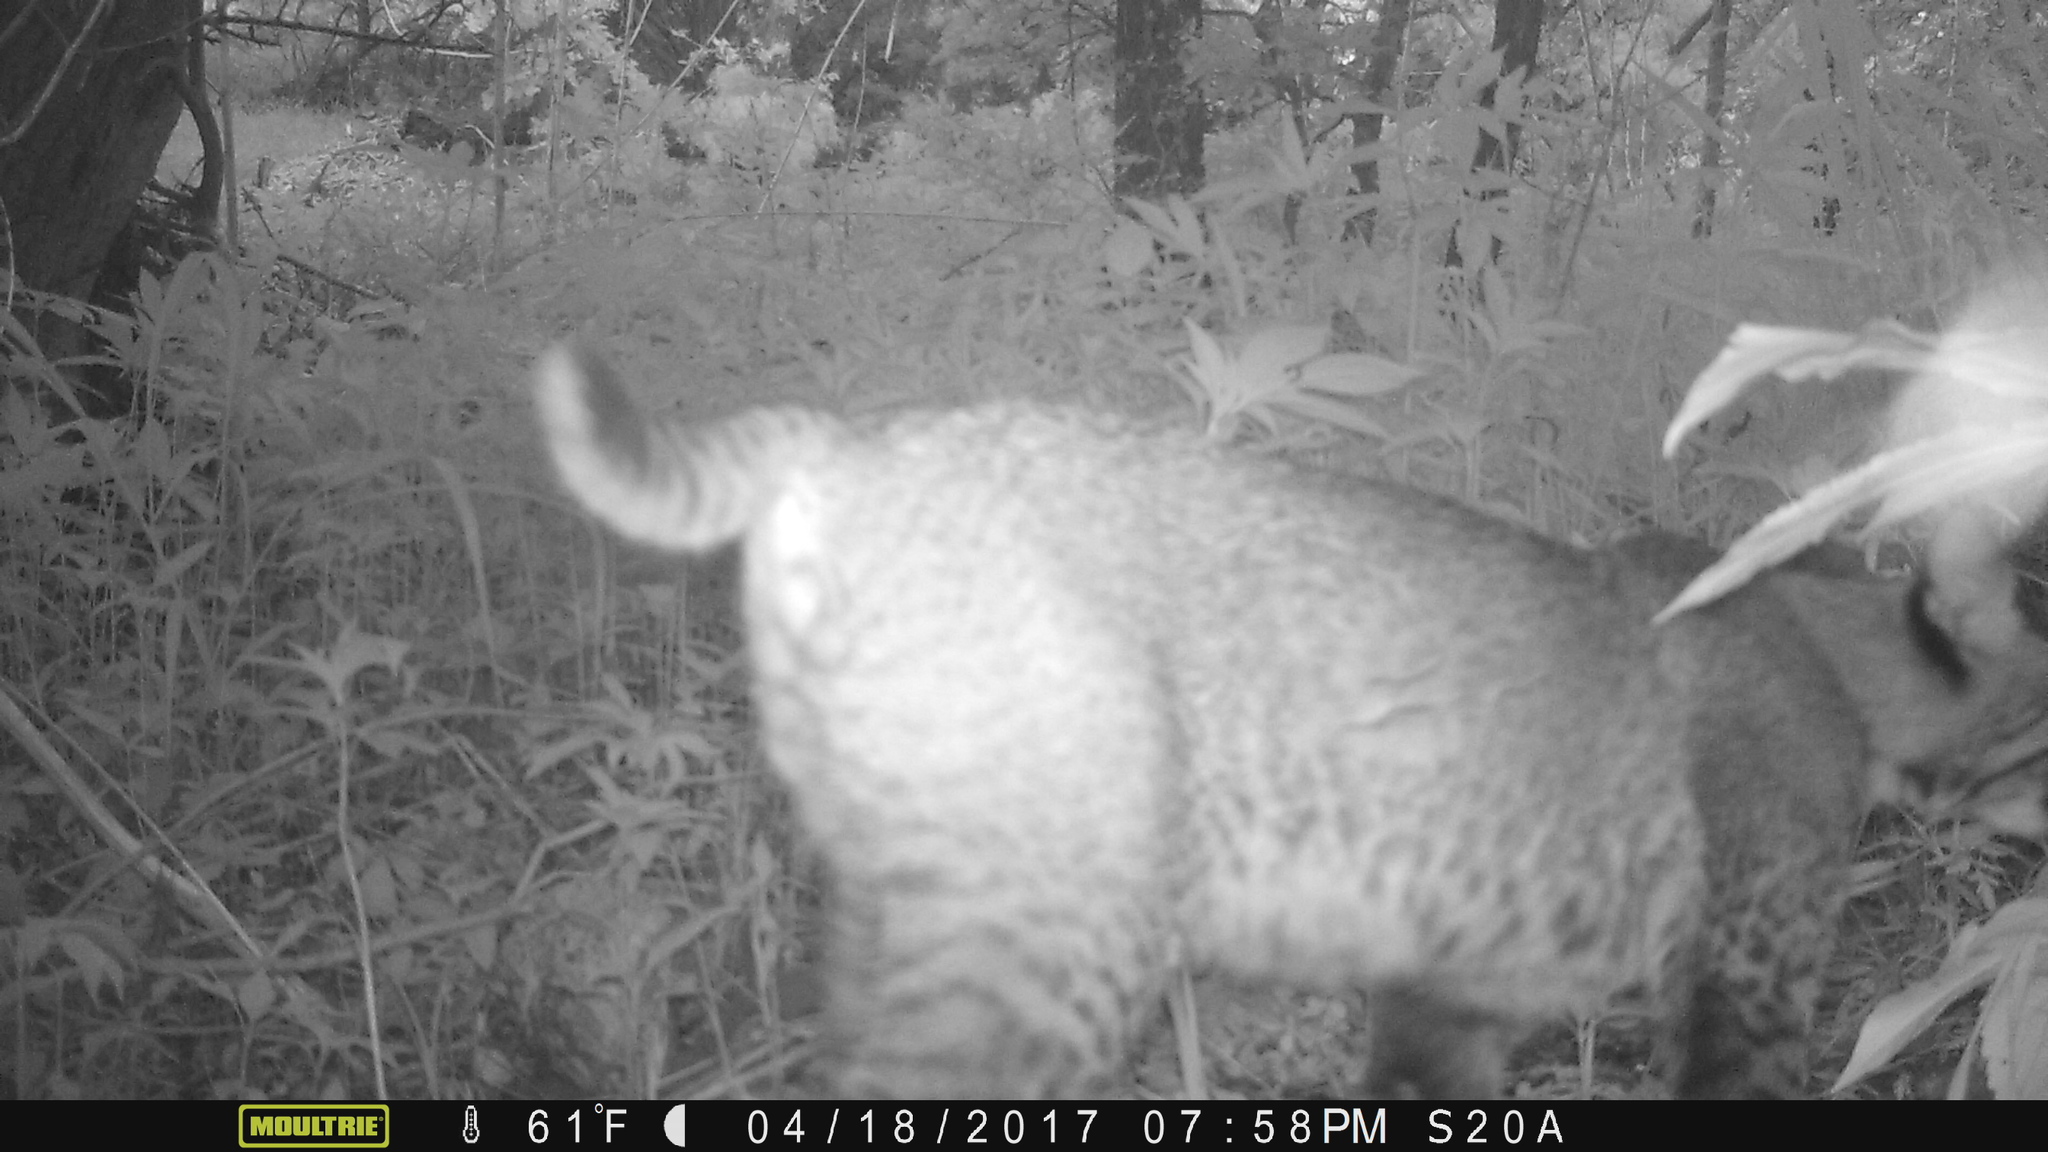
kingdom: Animalia
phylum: Chordata
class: Mammalia
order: Carnivora
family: Felidae
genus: Lynx
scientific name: Lynx rufus
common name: Bobcat
